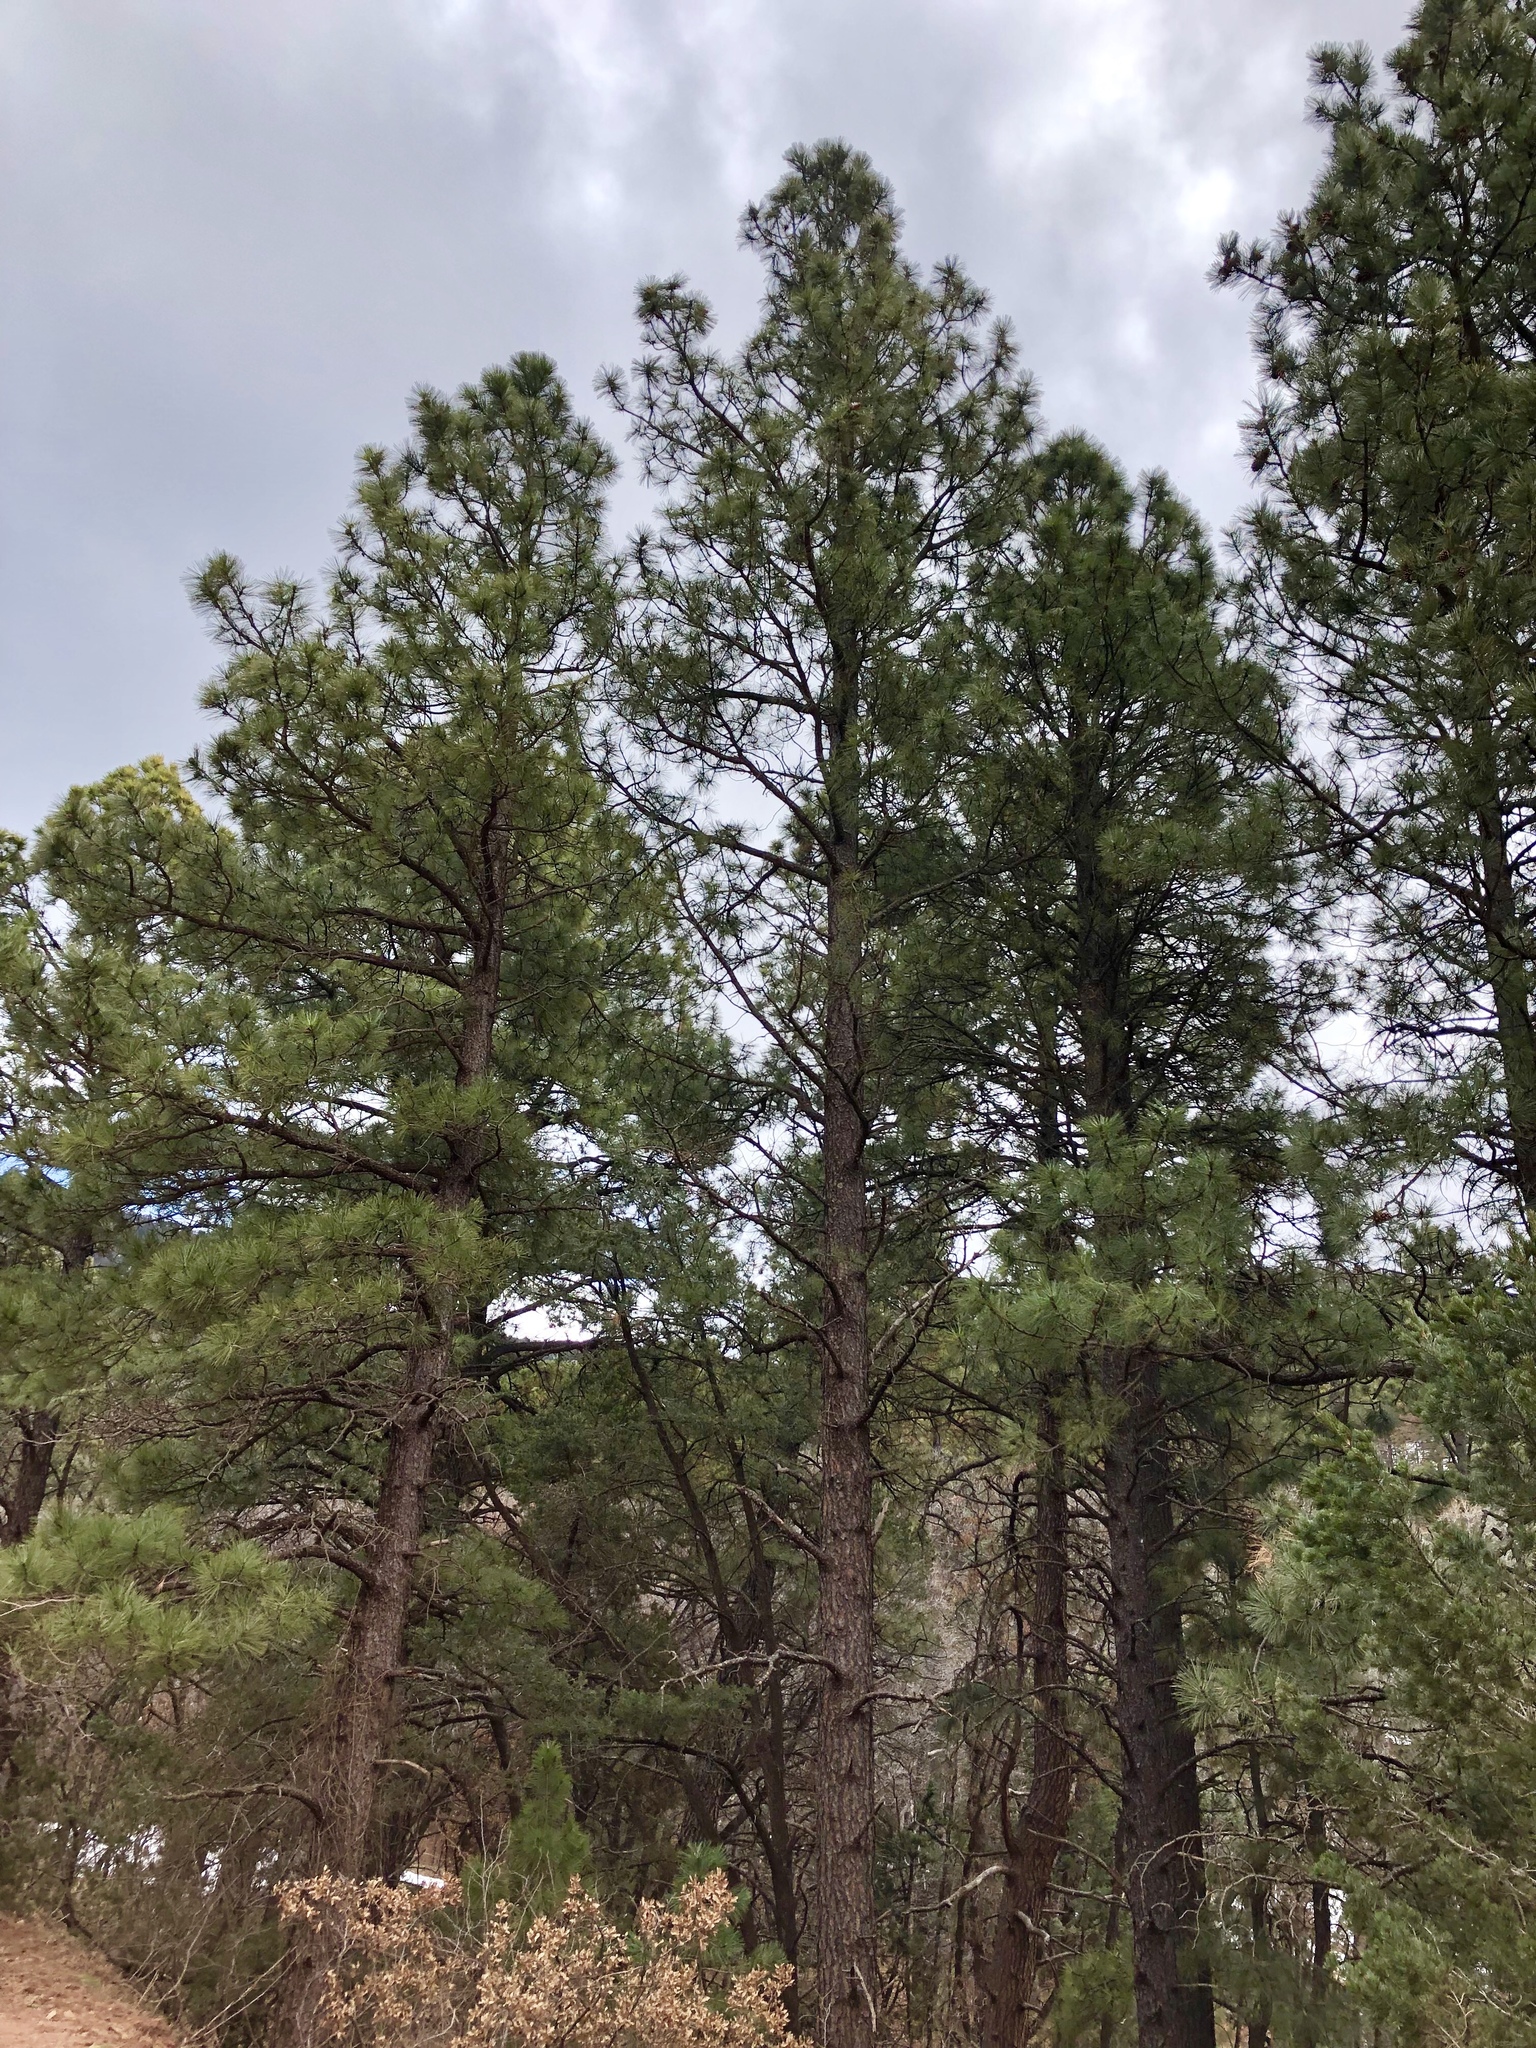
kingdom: Plantae
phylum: Tracheophyta
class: Pinopsida
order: Pinales
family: Pinaceae
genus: Pinus
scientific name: Pinus ponderosa
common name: Western yellow-pine
